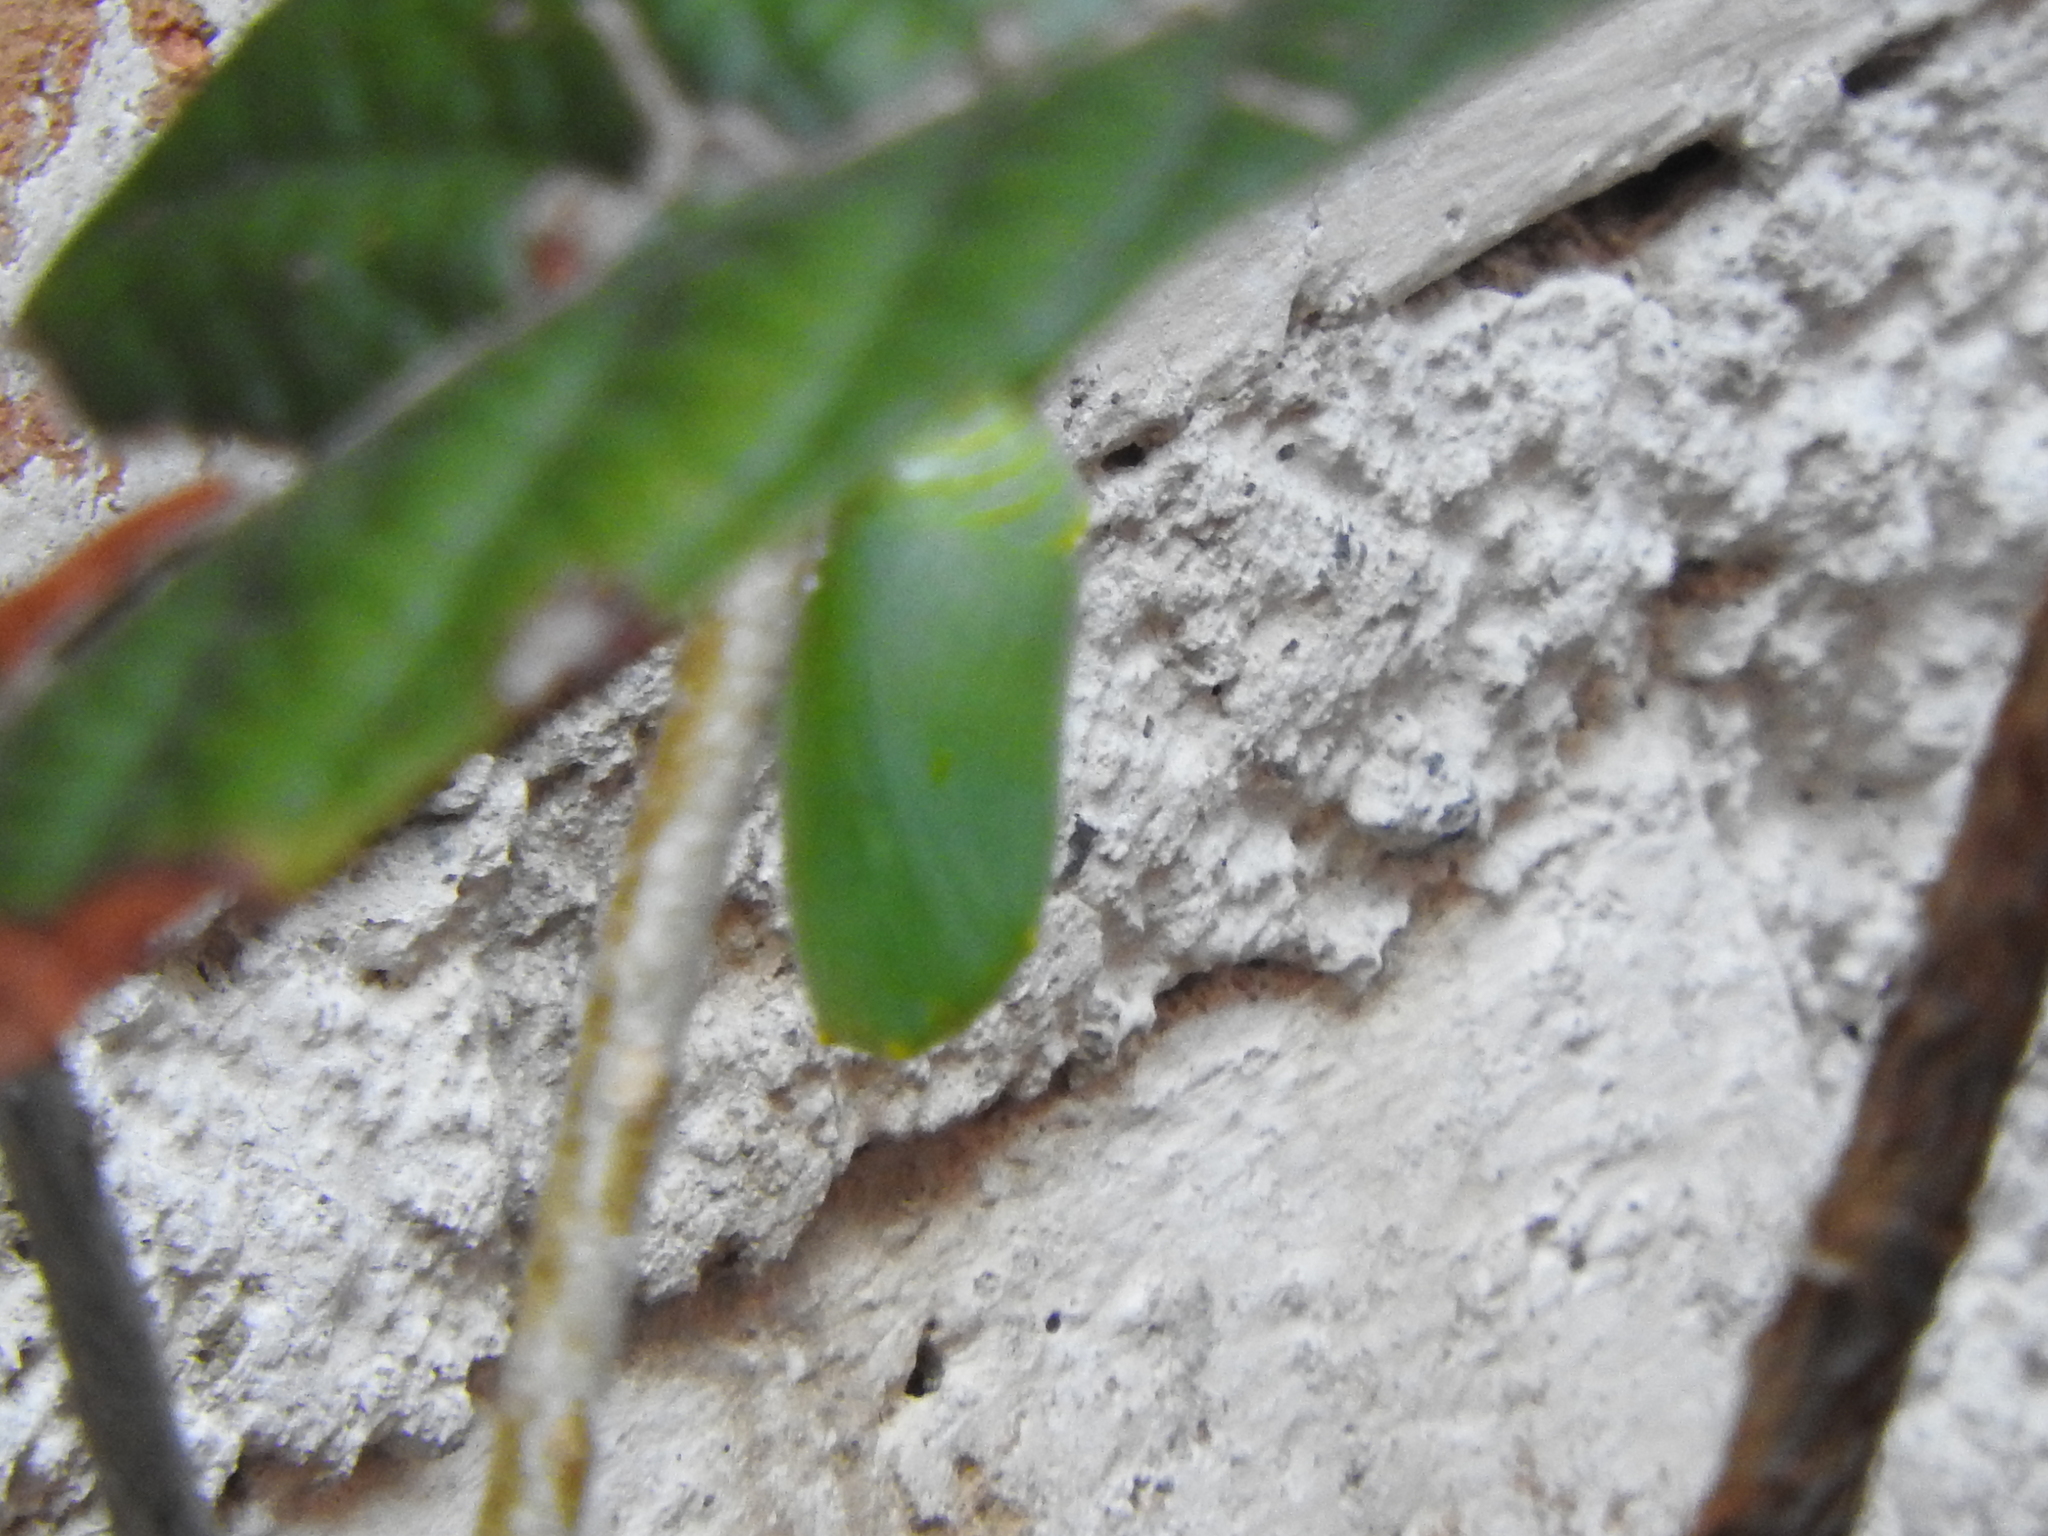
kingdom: Animalia
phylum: Arthropoda
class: Insecta
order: Lepidoptera
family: Nymphalidae
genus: Danaus
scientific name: Danaus plexippus
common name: Monarch
